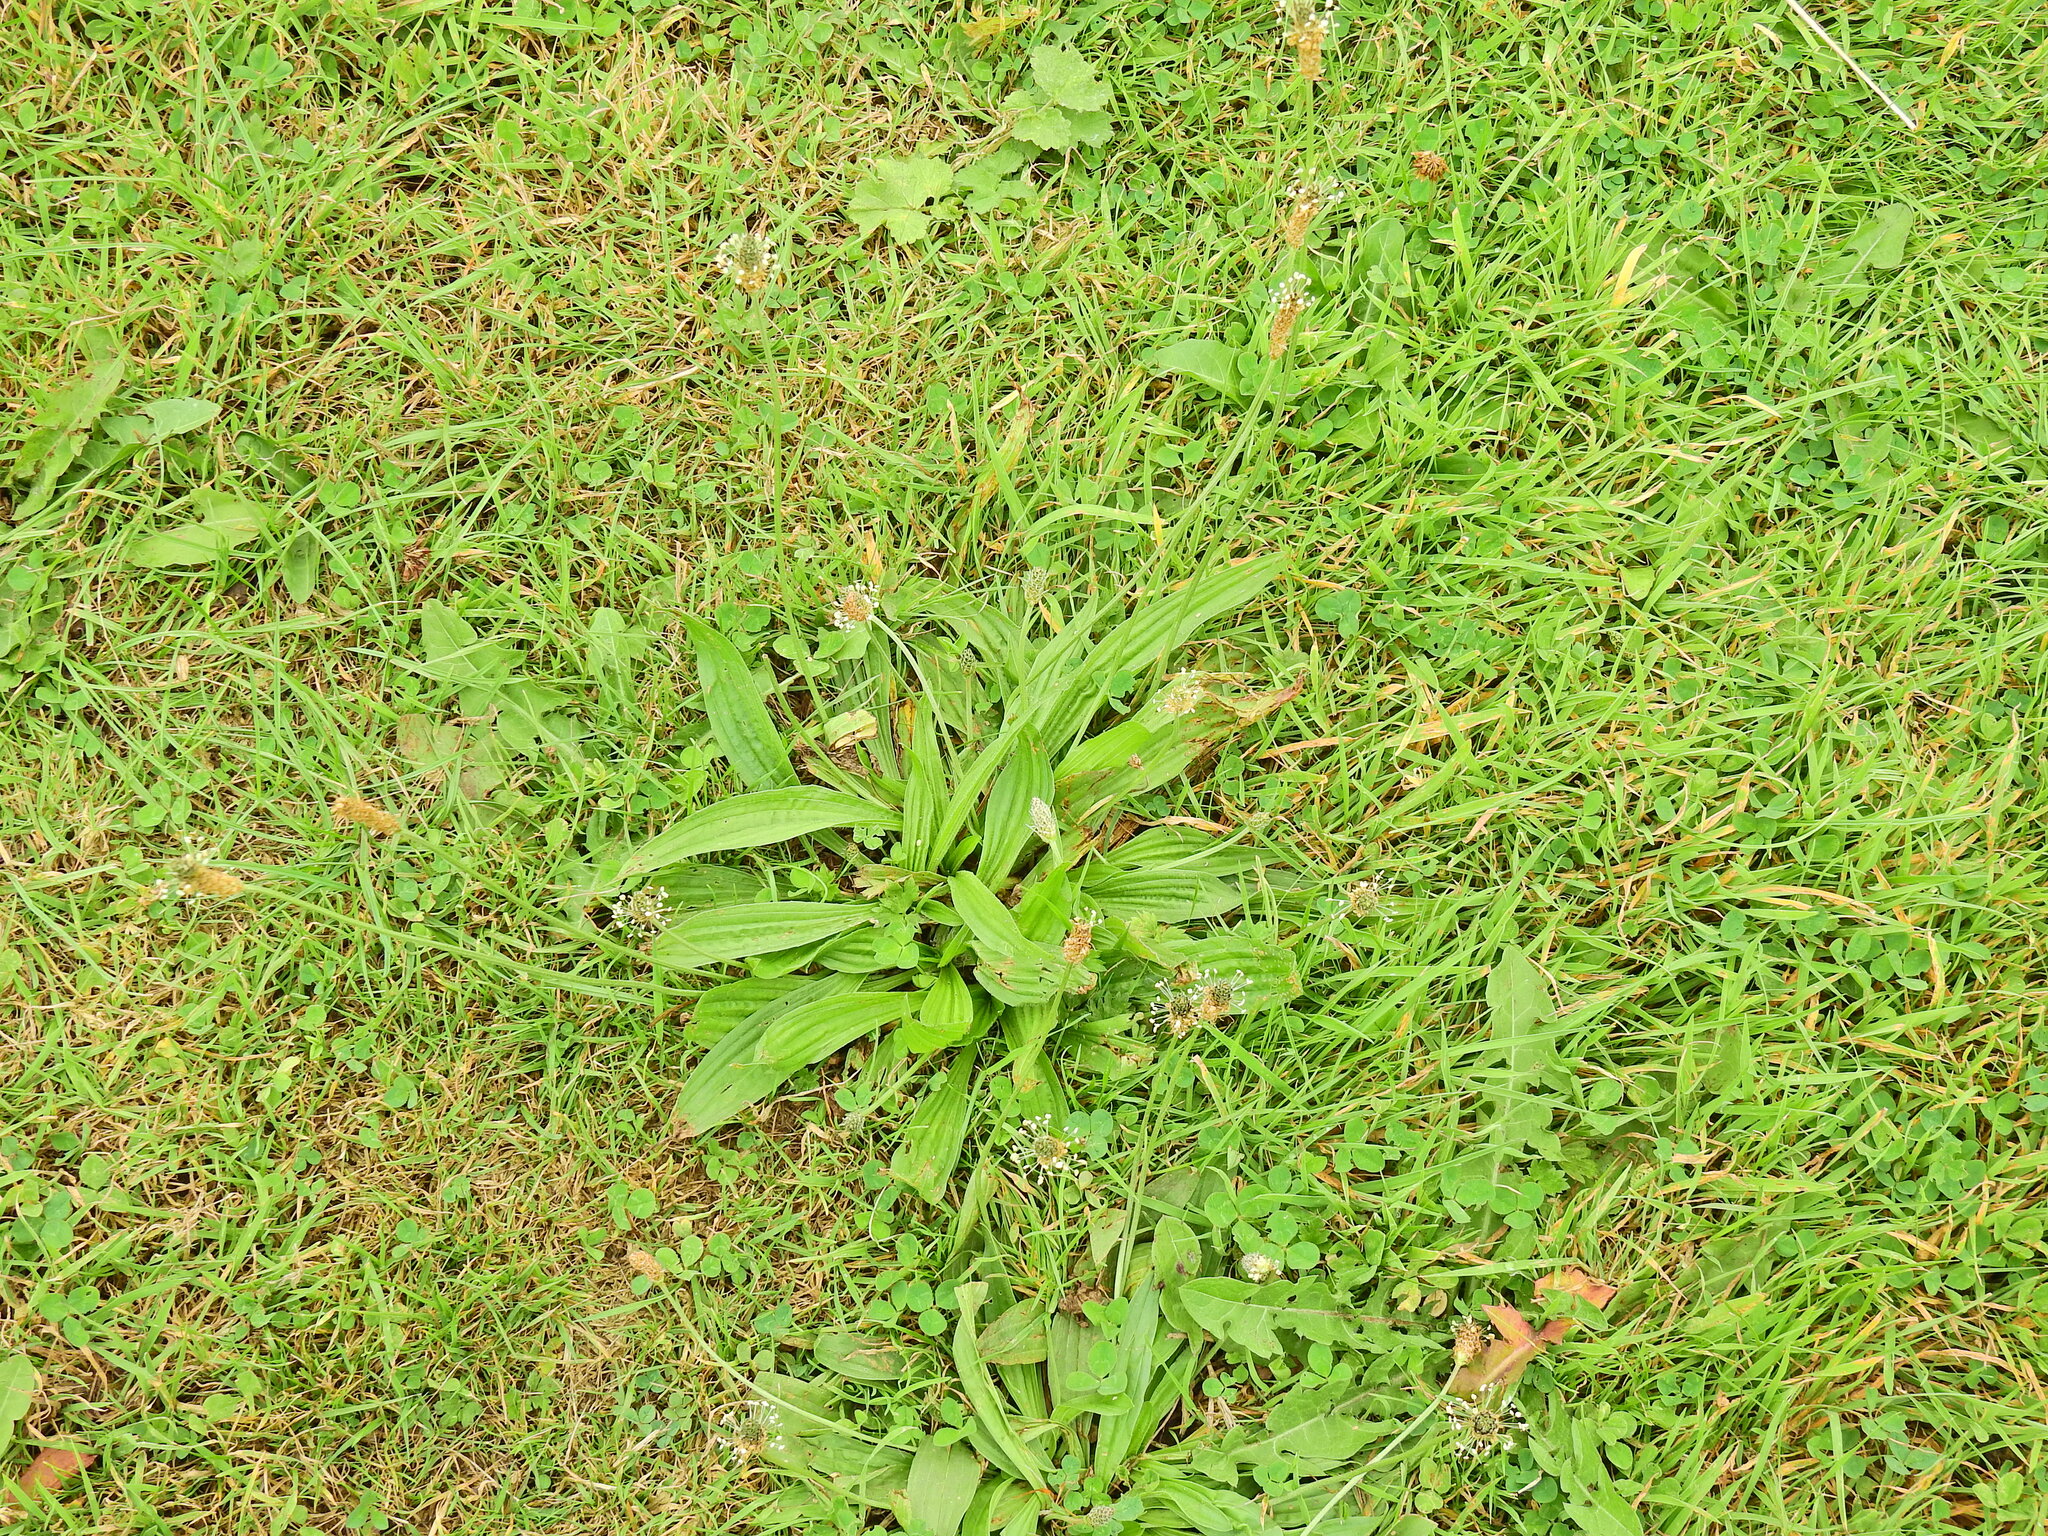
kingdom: Plantae
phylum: Tracheophyta
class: Magnoliopsida
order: Lamiales
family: Plantaginaceae
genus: Plantago
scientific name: Plantago lanceolata
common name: Ribwort plantain
